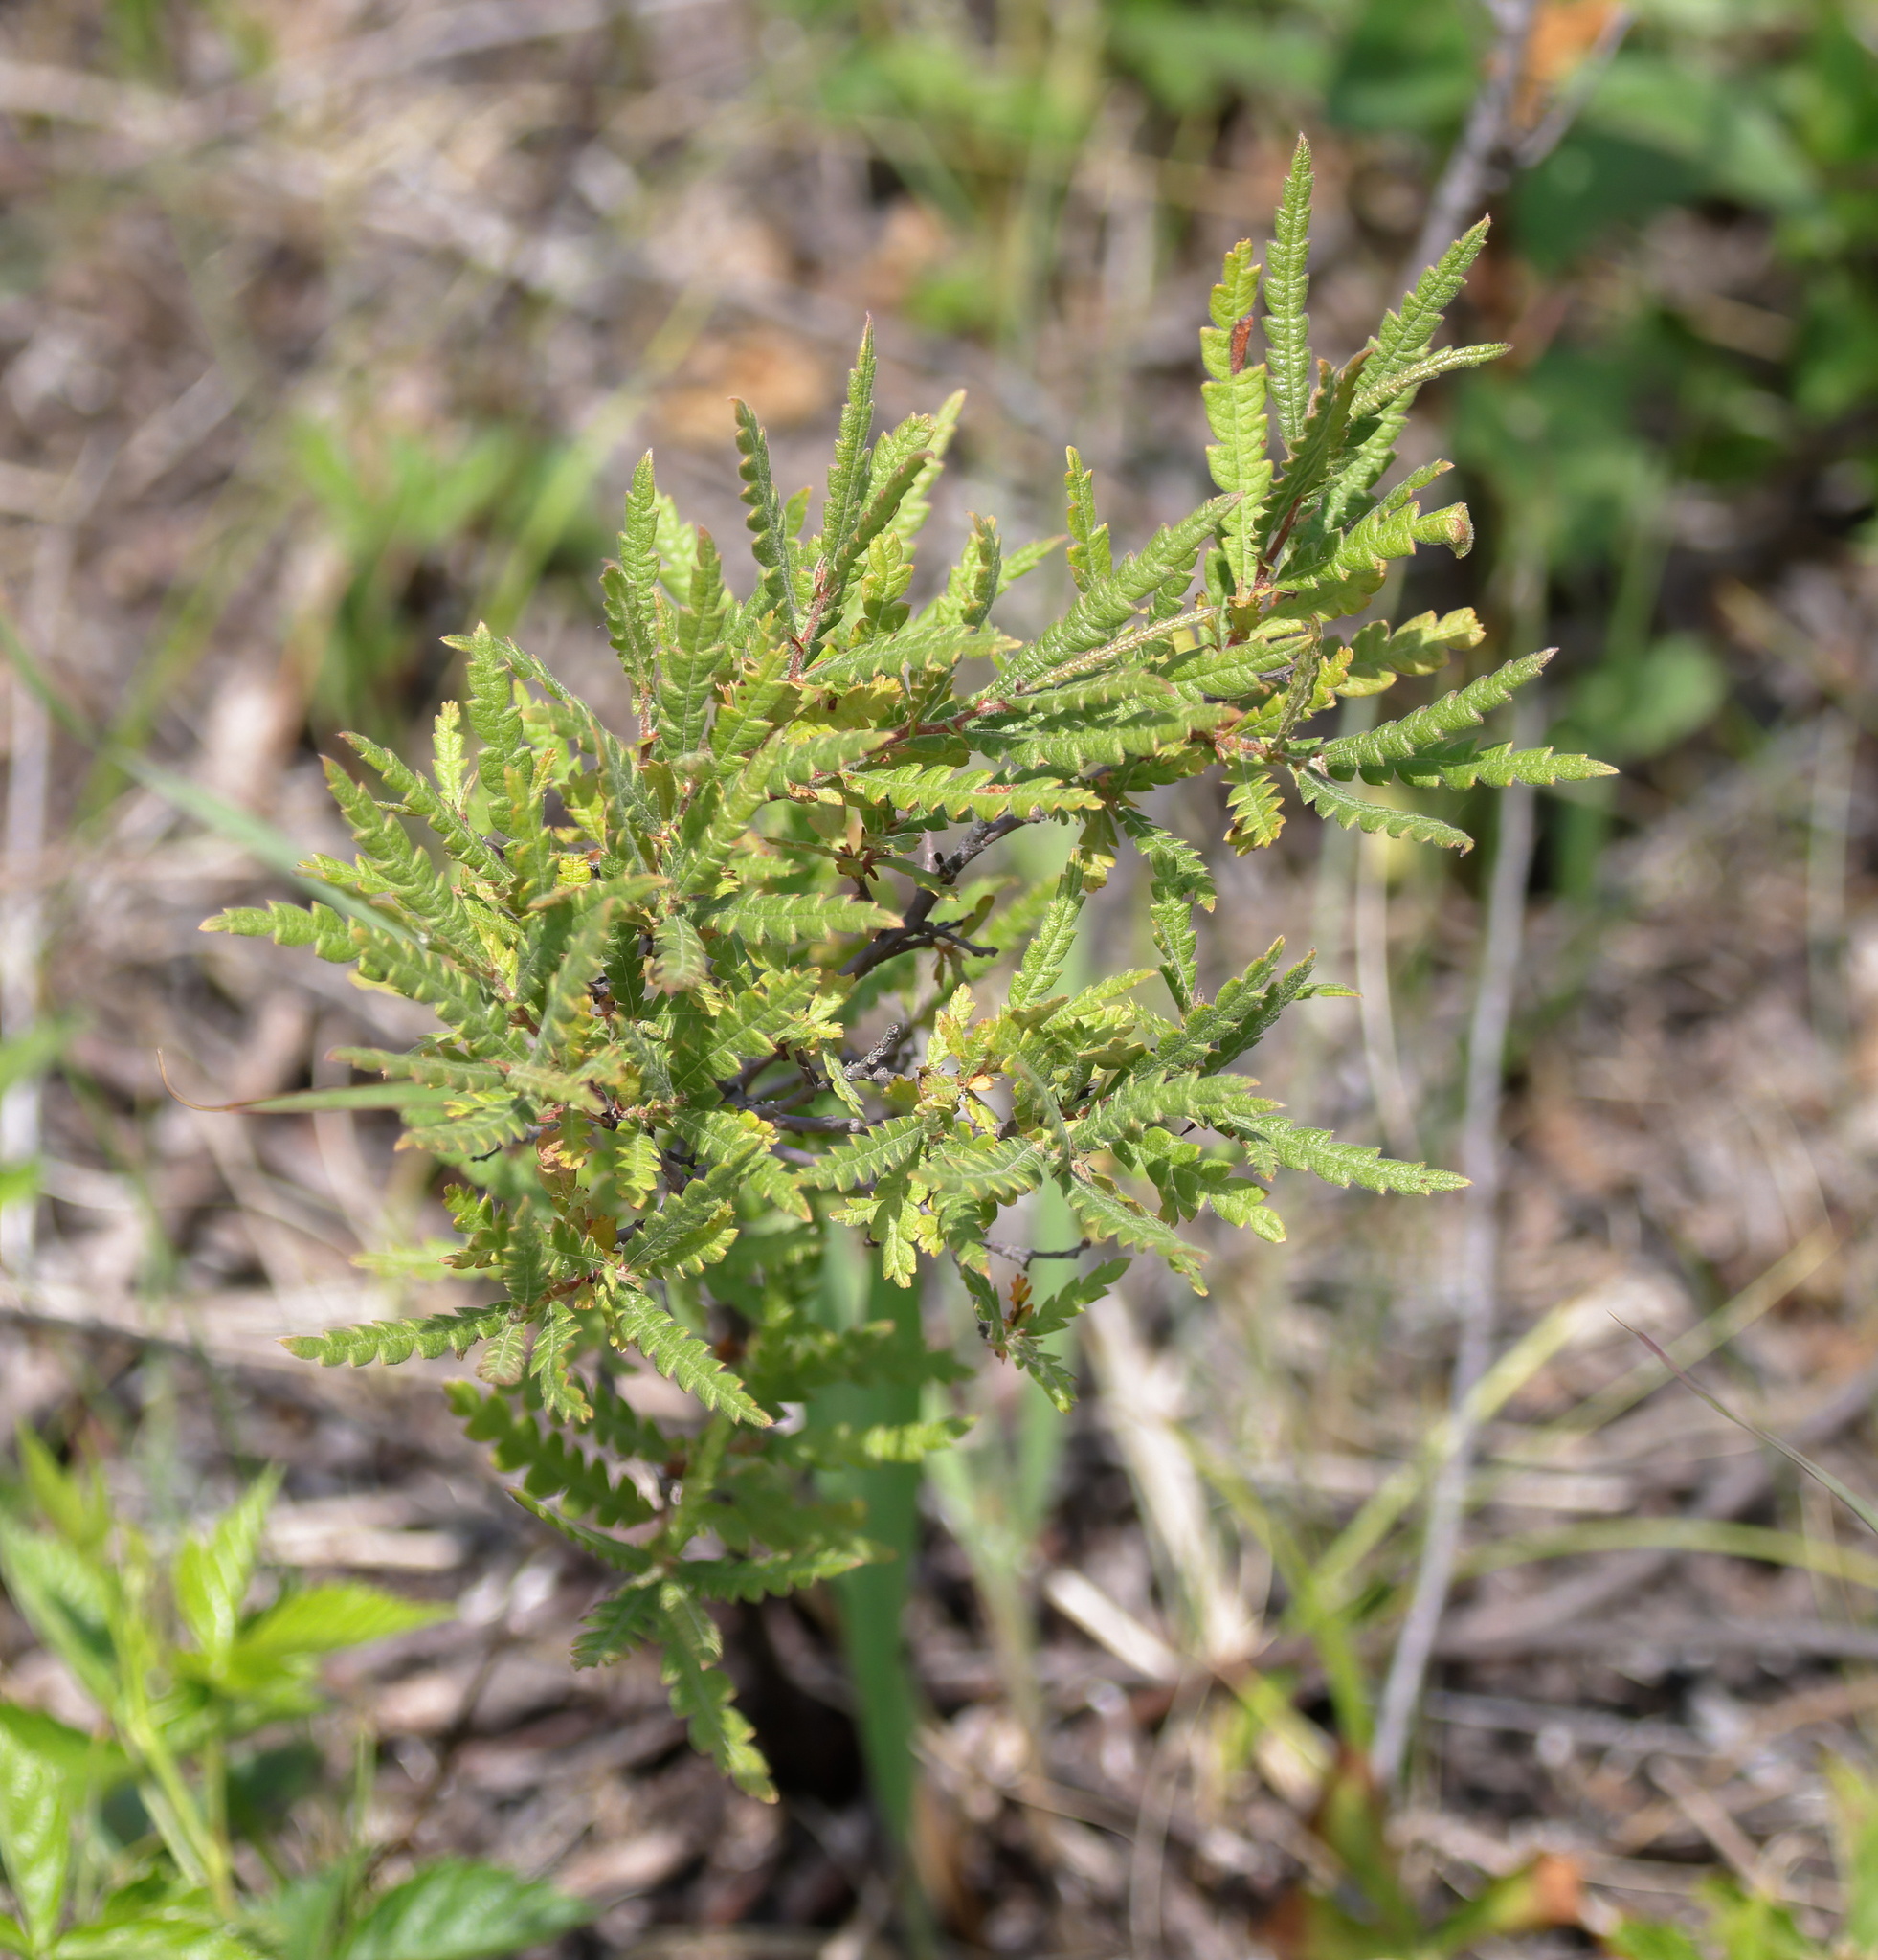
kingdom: Plantae
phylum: Tracheophyta
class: Magnoliopsida
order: Fagales
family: Myricaceae
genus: Comptonia
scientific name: Comptonia peregrina
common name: Sweet-fern
